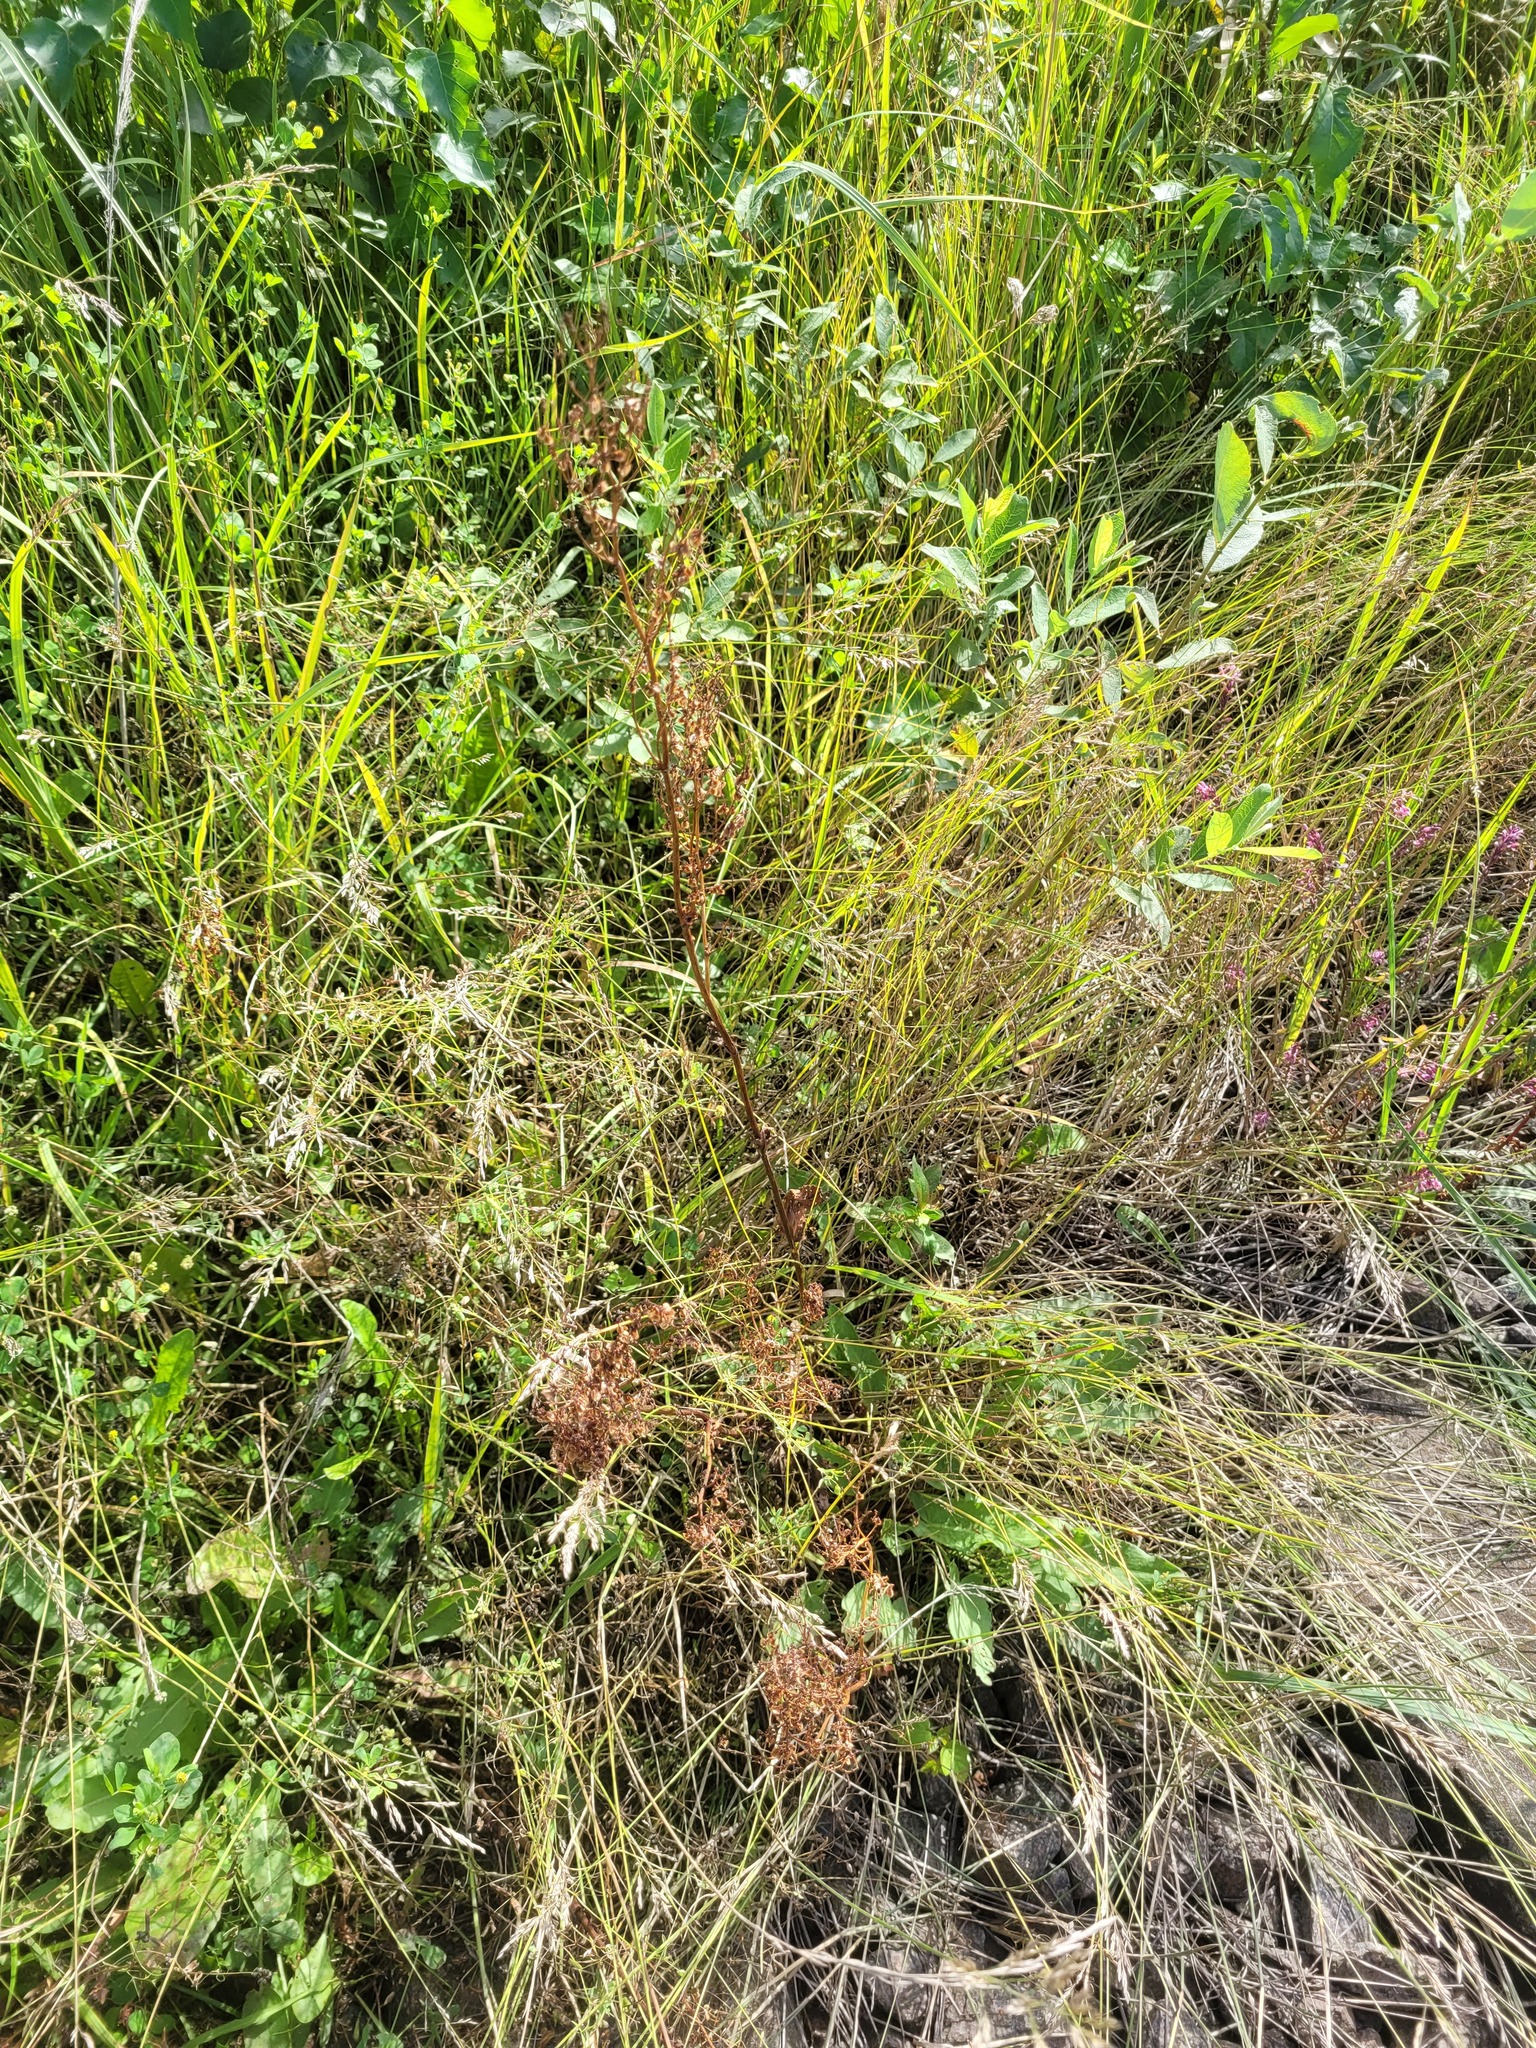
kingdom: Plantae
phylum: Tracheophyta
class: Magnoliopsida
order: Caryophyllales
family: Polygonaceae
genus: Rumex
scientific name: Rumex thyrsiflorus
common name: Garden sorrel
